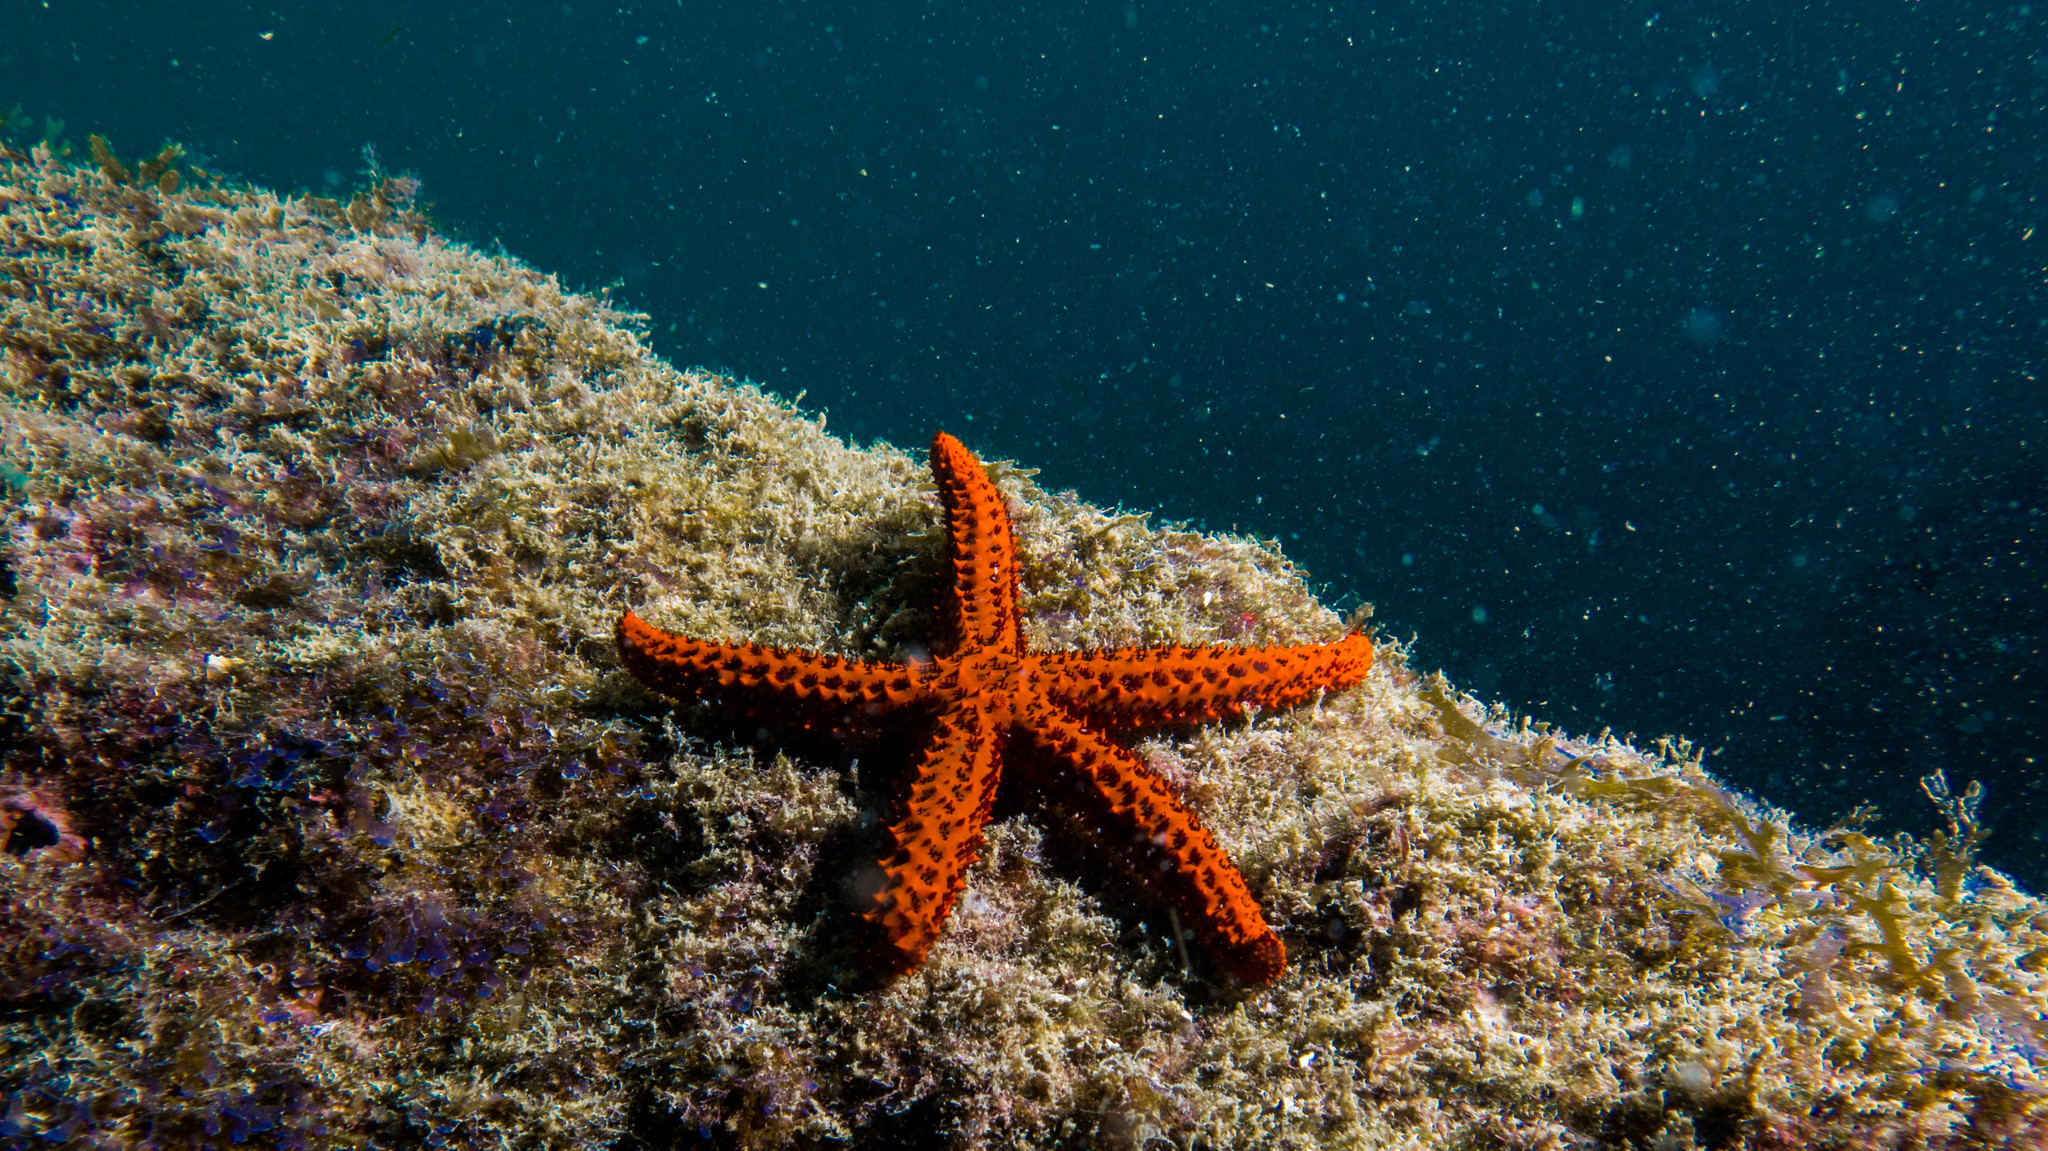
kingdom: Animalia
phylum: Echinodermata
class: Asteroidea
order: Spinulosida
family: Echinasteridae
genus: Echinaster
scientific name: Echinaster brasiliensis
